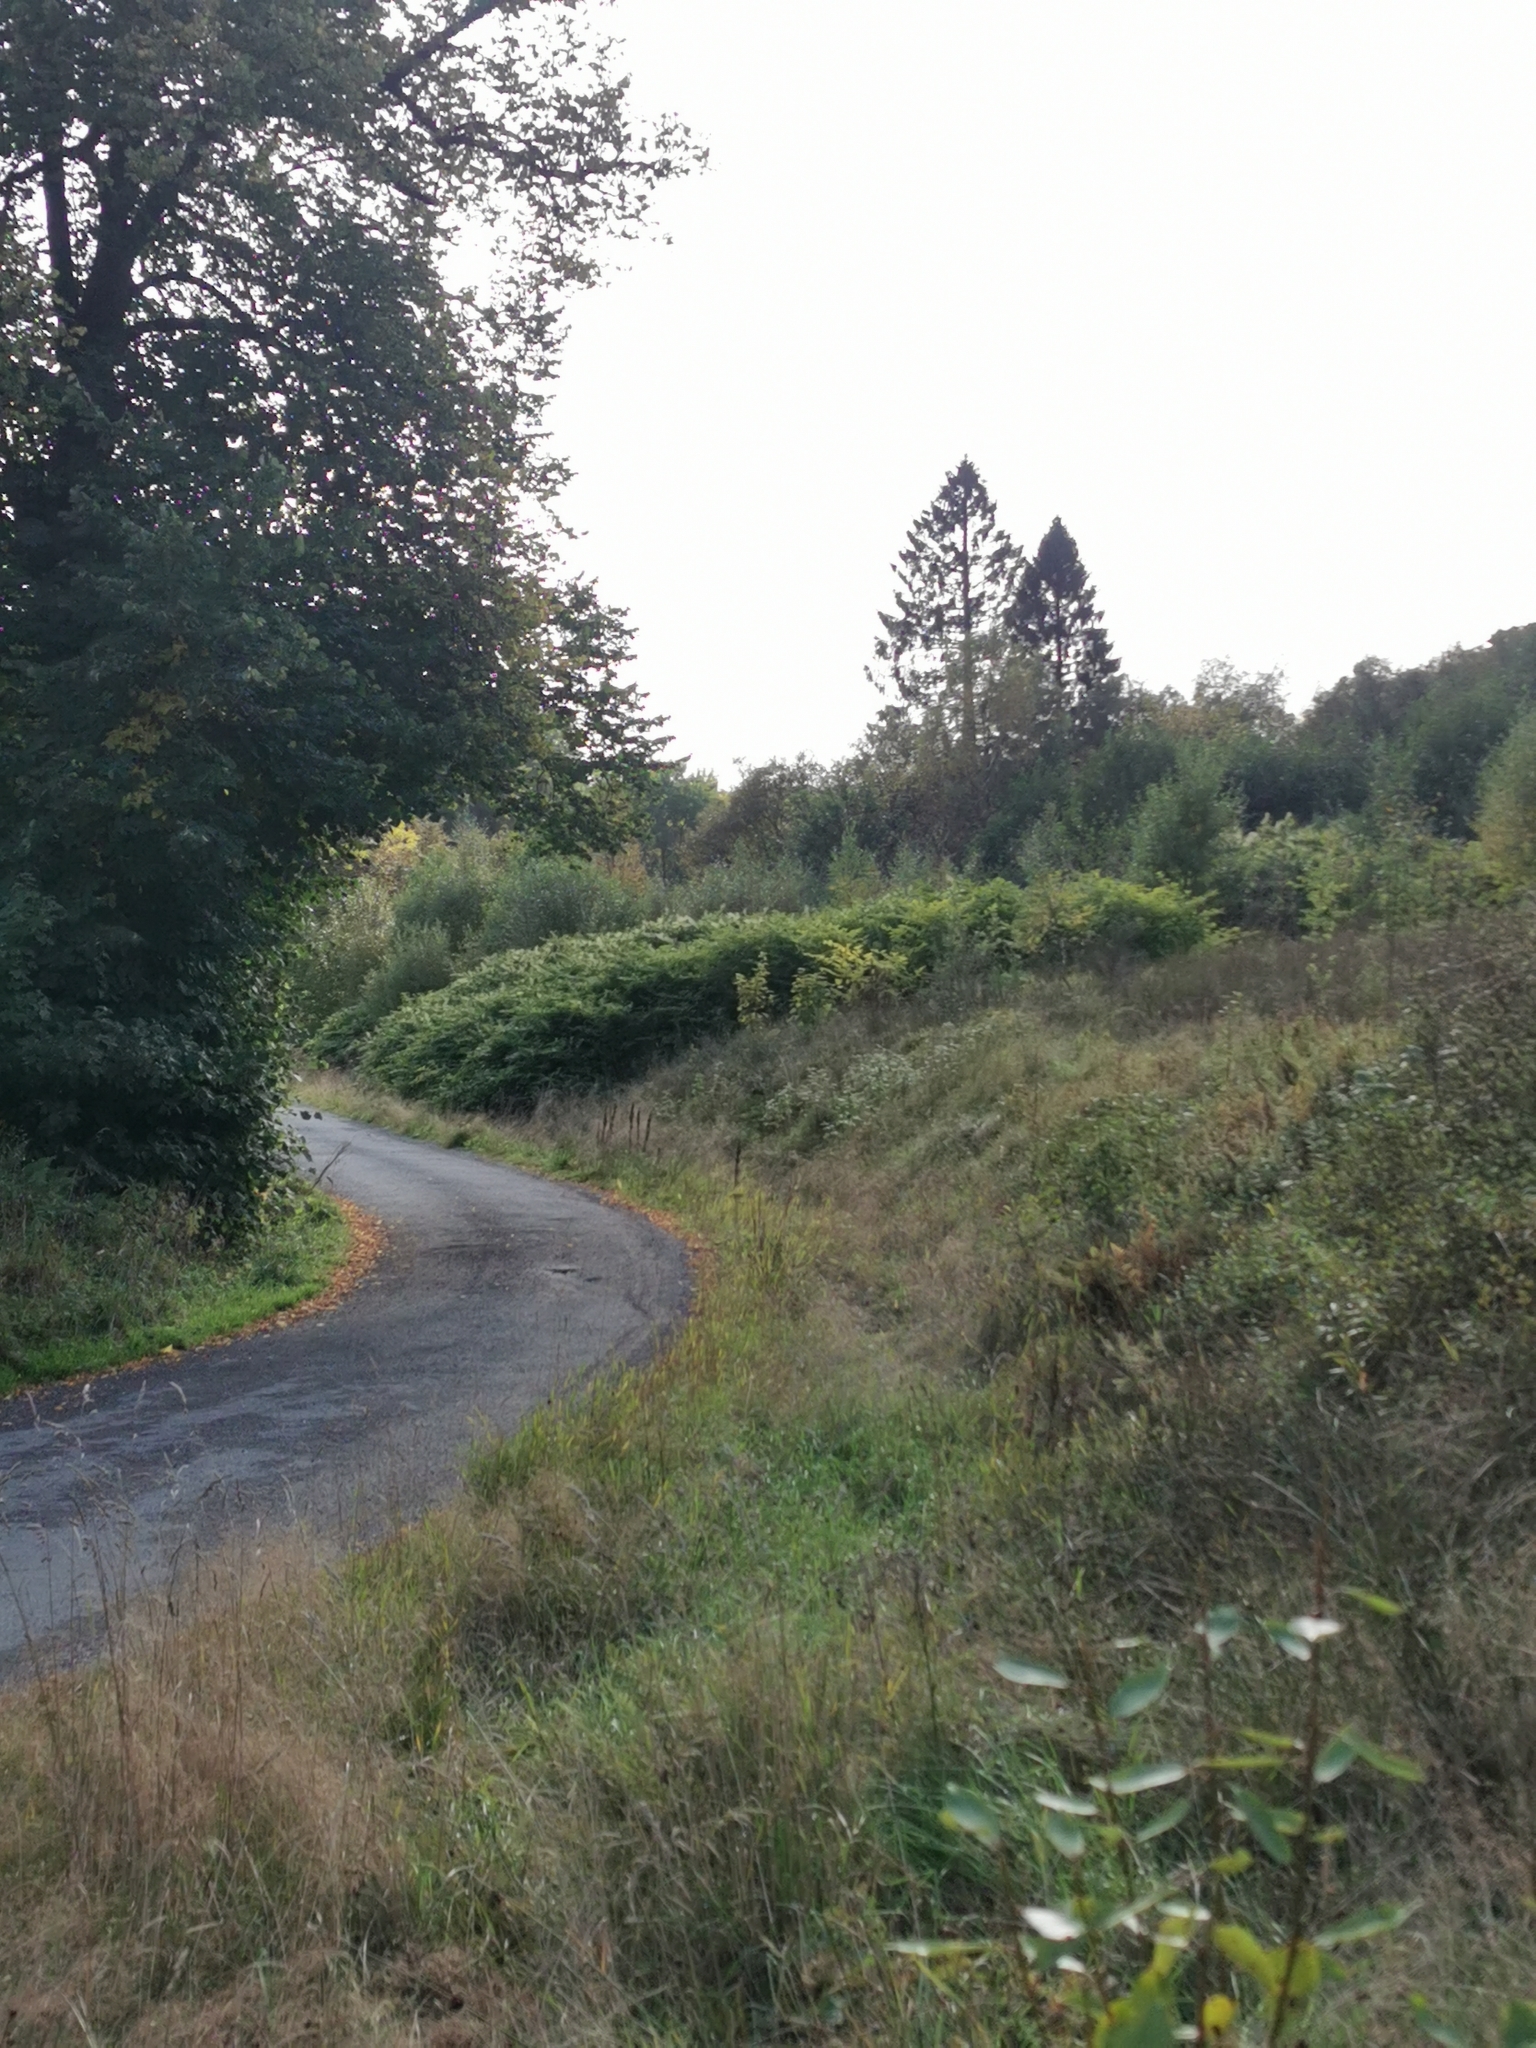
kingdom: Plantae
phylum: Tracheophyta
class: Magnoliopsida
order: Caryophyllales
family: Polygonaceae
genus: Reynoutria
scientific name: Reynoutria japonica
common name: Japanese knotweed
